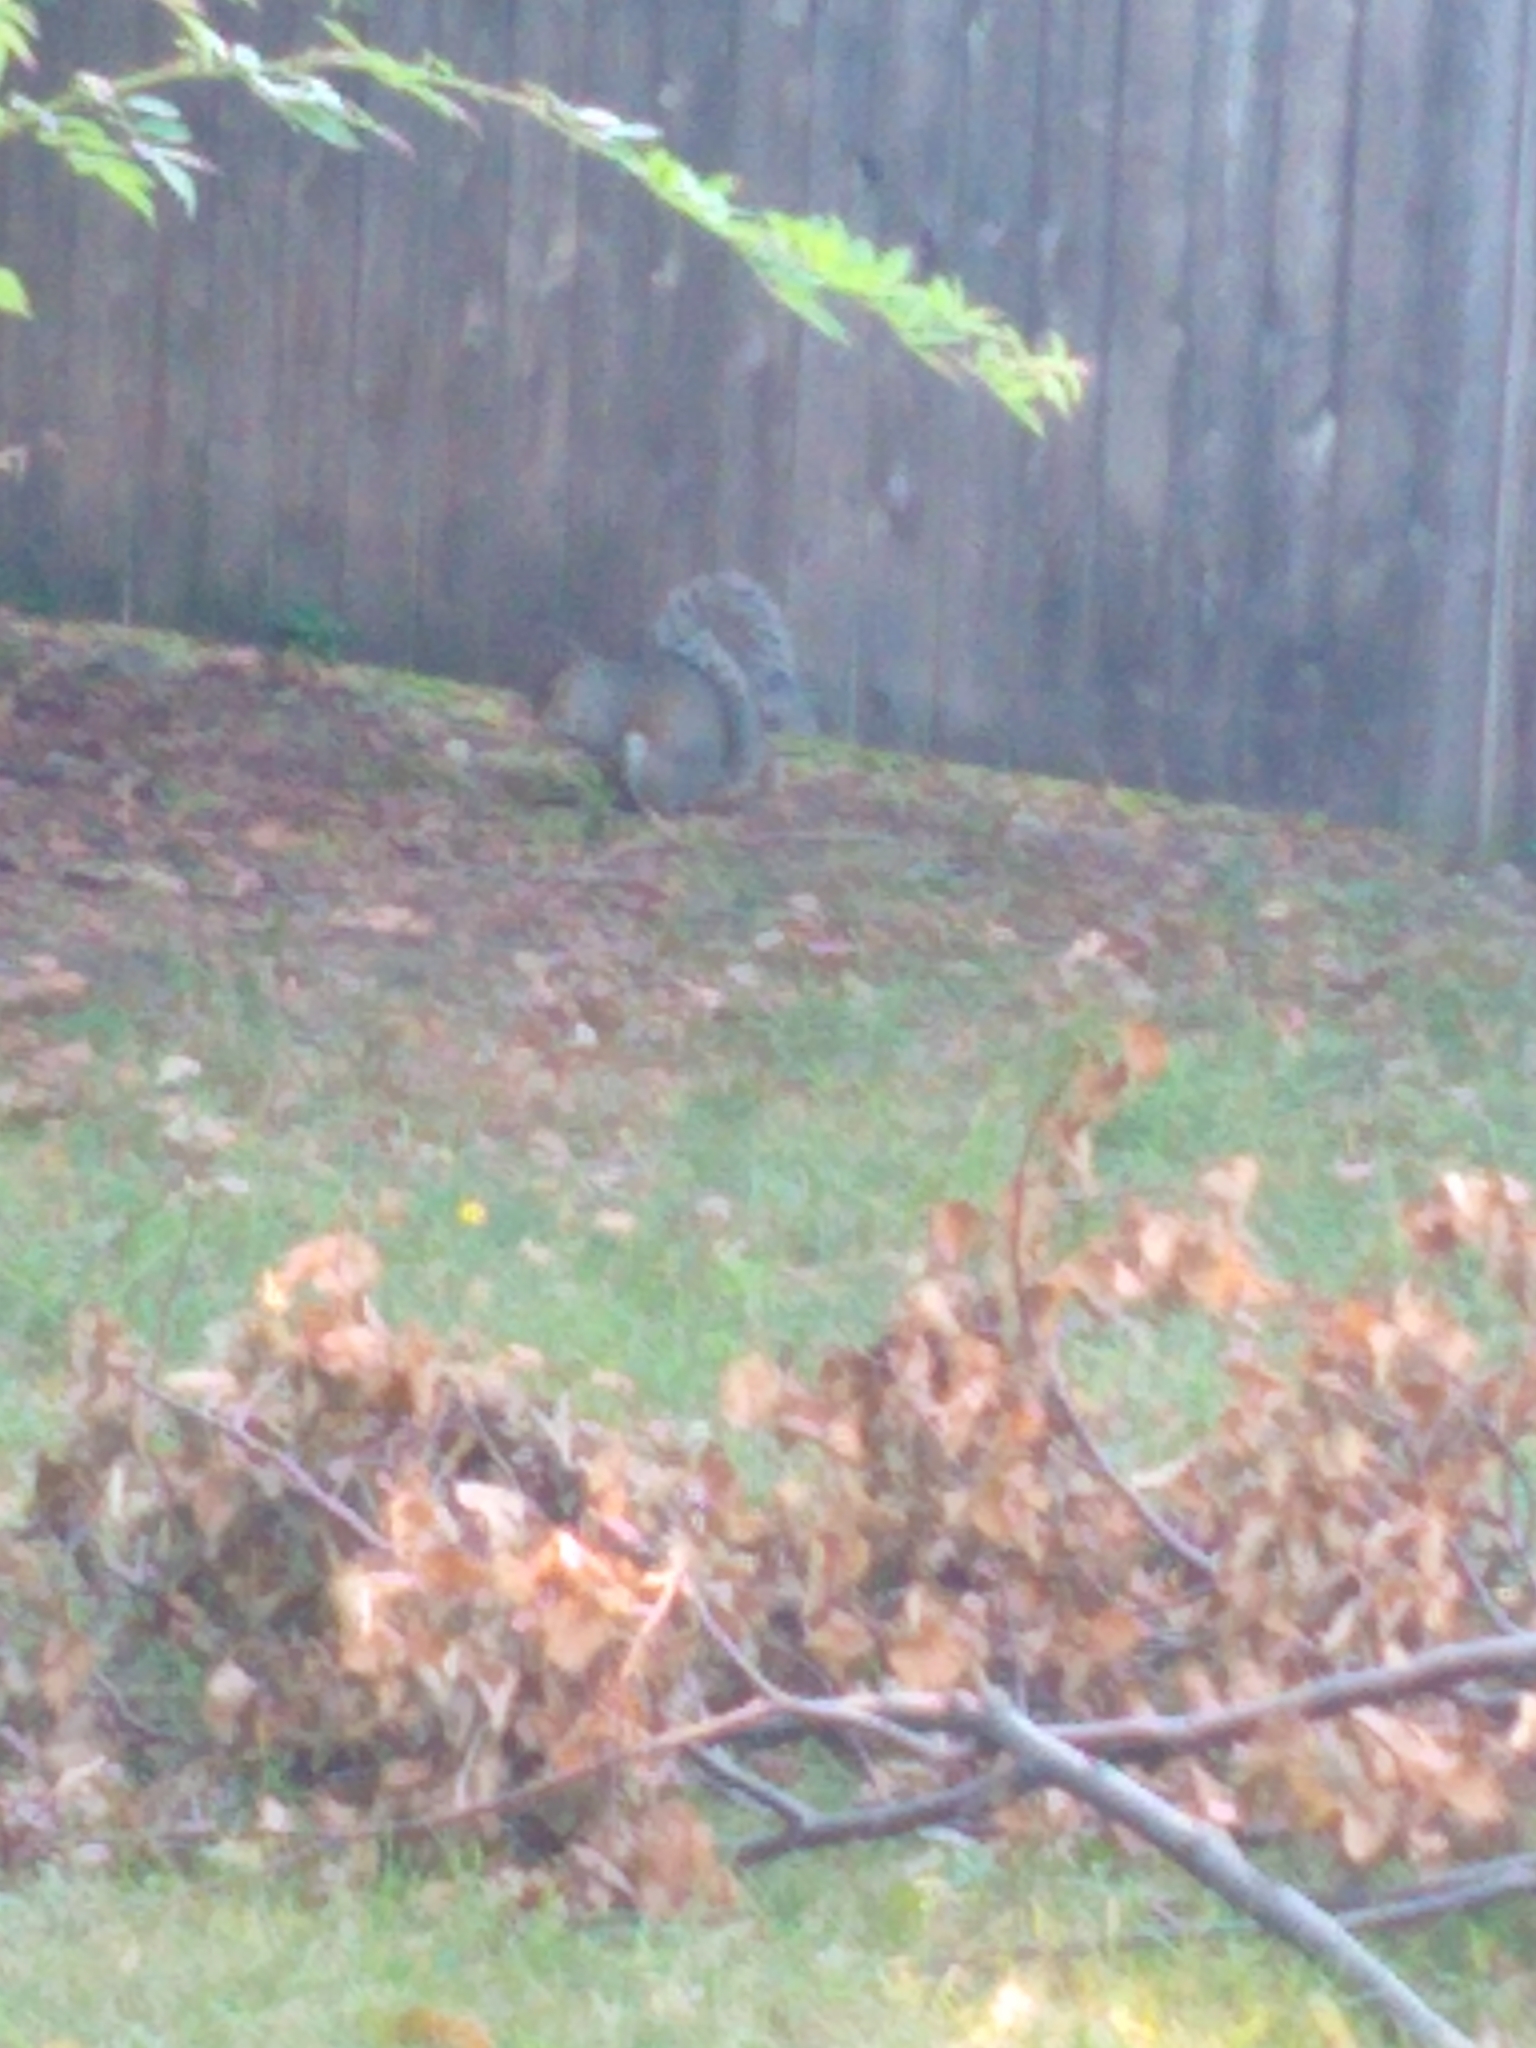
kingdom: Animalia
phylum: Chordata
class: Mammalia
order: Rodentia
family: Sciuridae
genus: Sciurus
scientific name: Sciurus carolinensis
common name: Eastern gray squirrel
